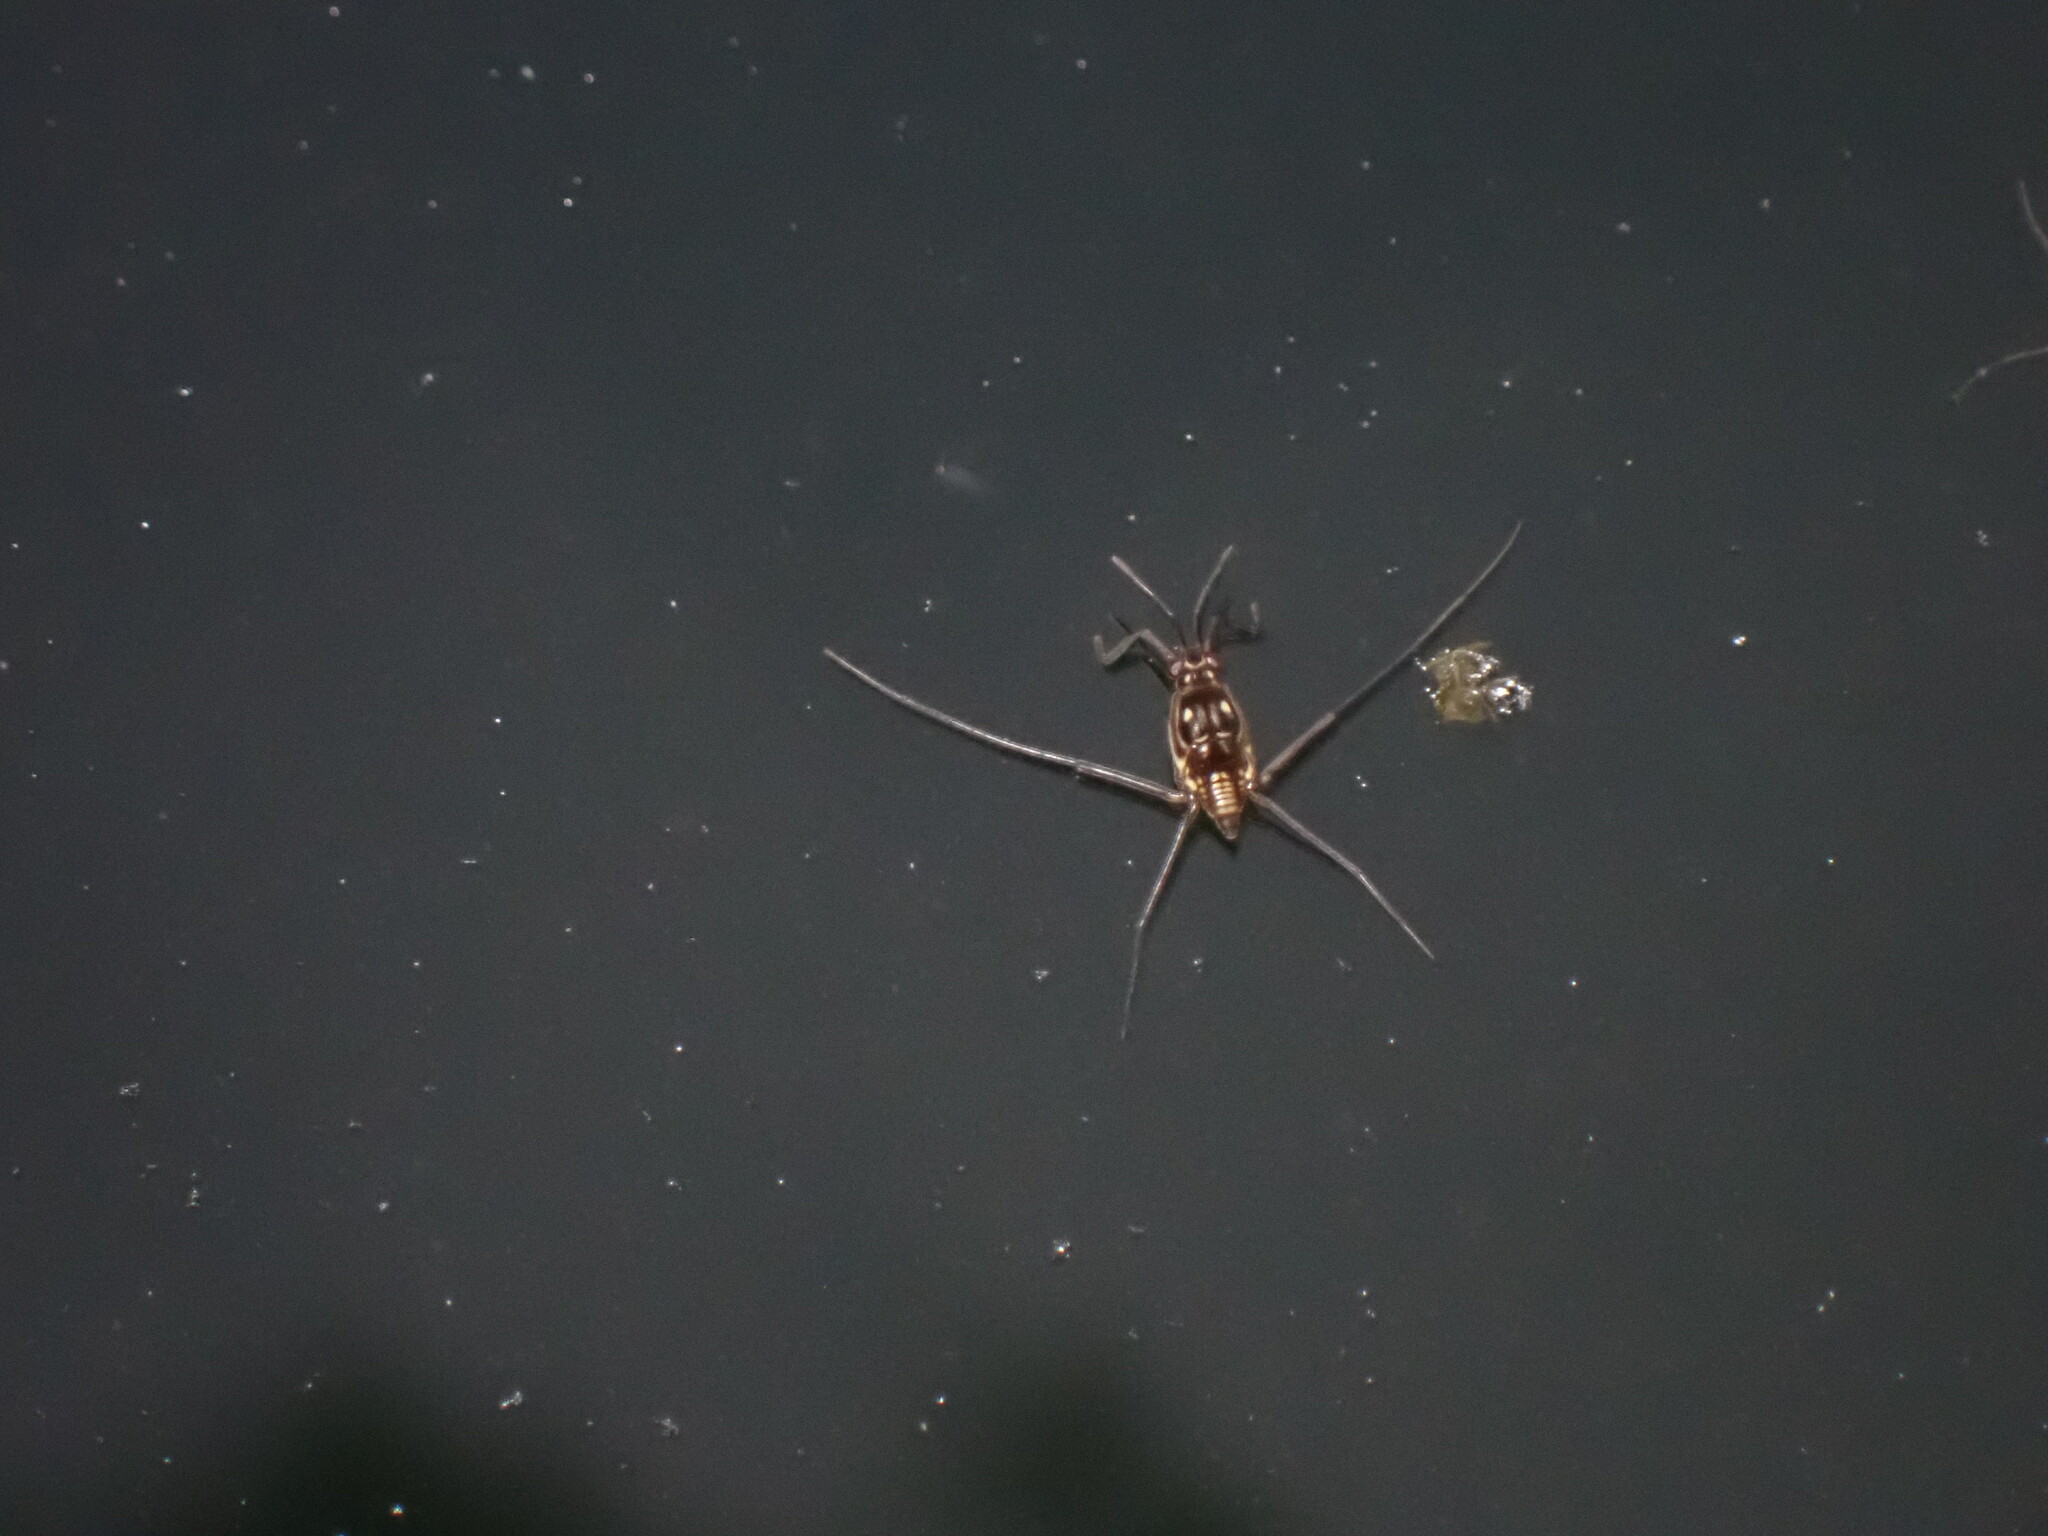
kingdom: Animalia
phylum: Arthropoda
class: Insecta
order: Hemiptera
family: Gerridae
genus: Trepobates
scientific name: Trepobates
